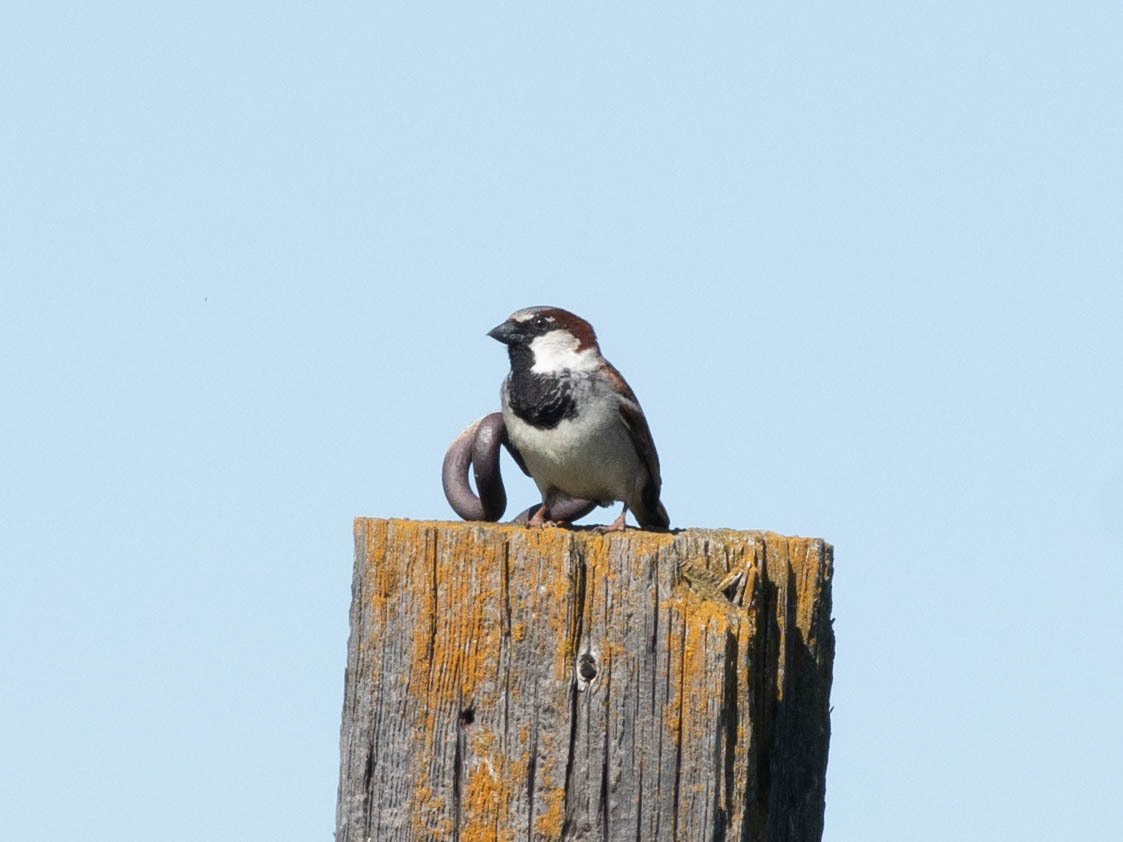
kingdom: Animalia
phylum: Chordata
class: Aves
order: Passeriformes
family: Passeridae
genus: Passer
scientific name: Passer domesticus
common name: House sparrow
